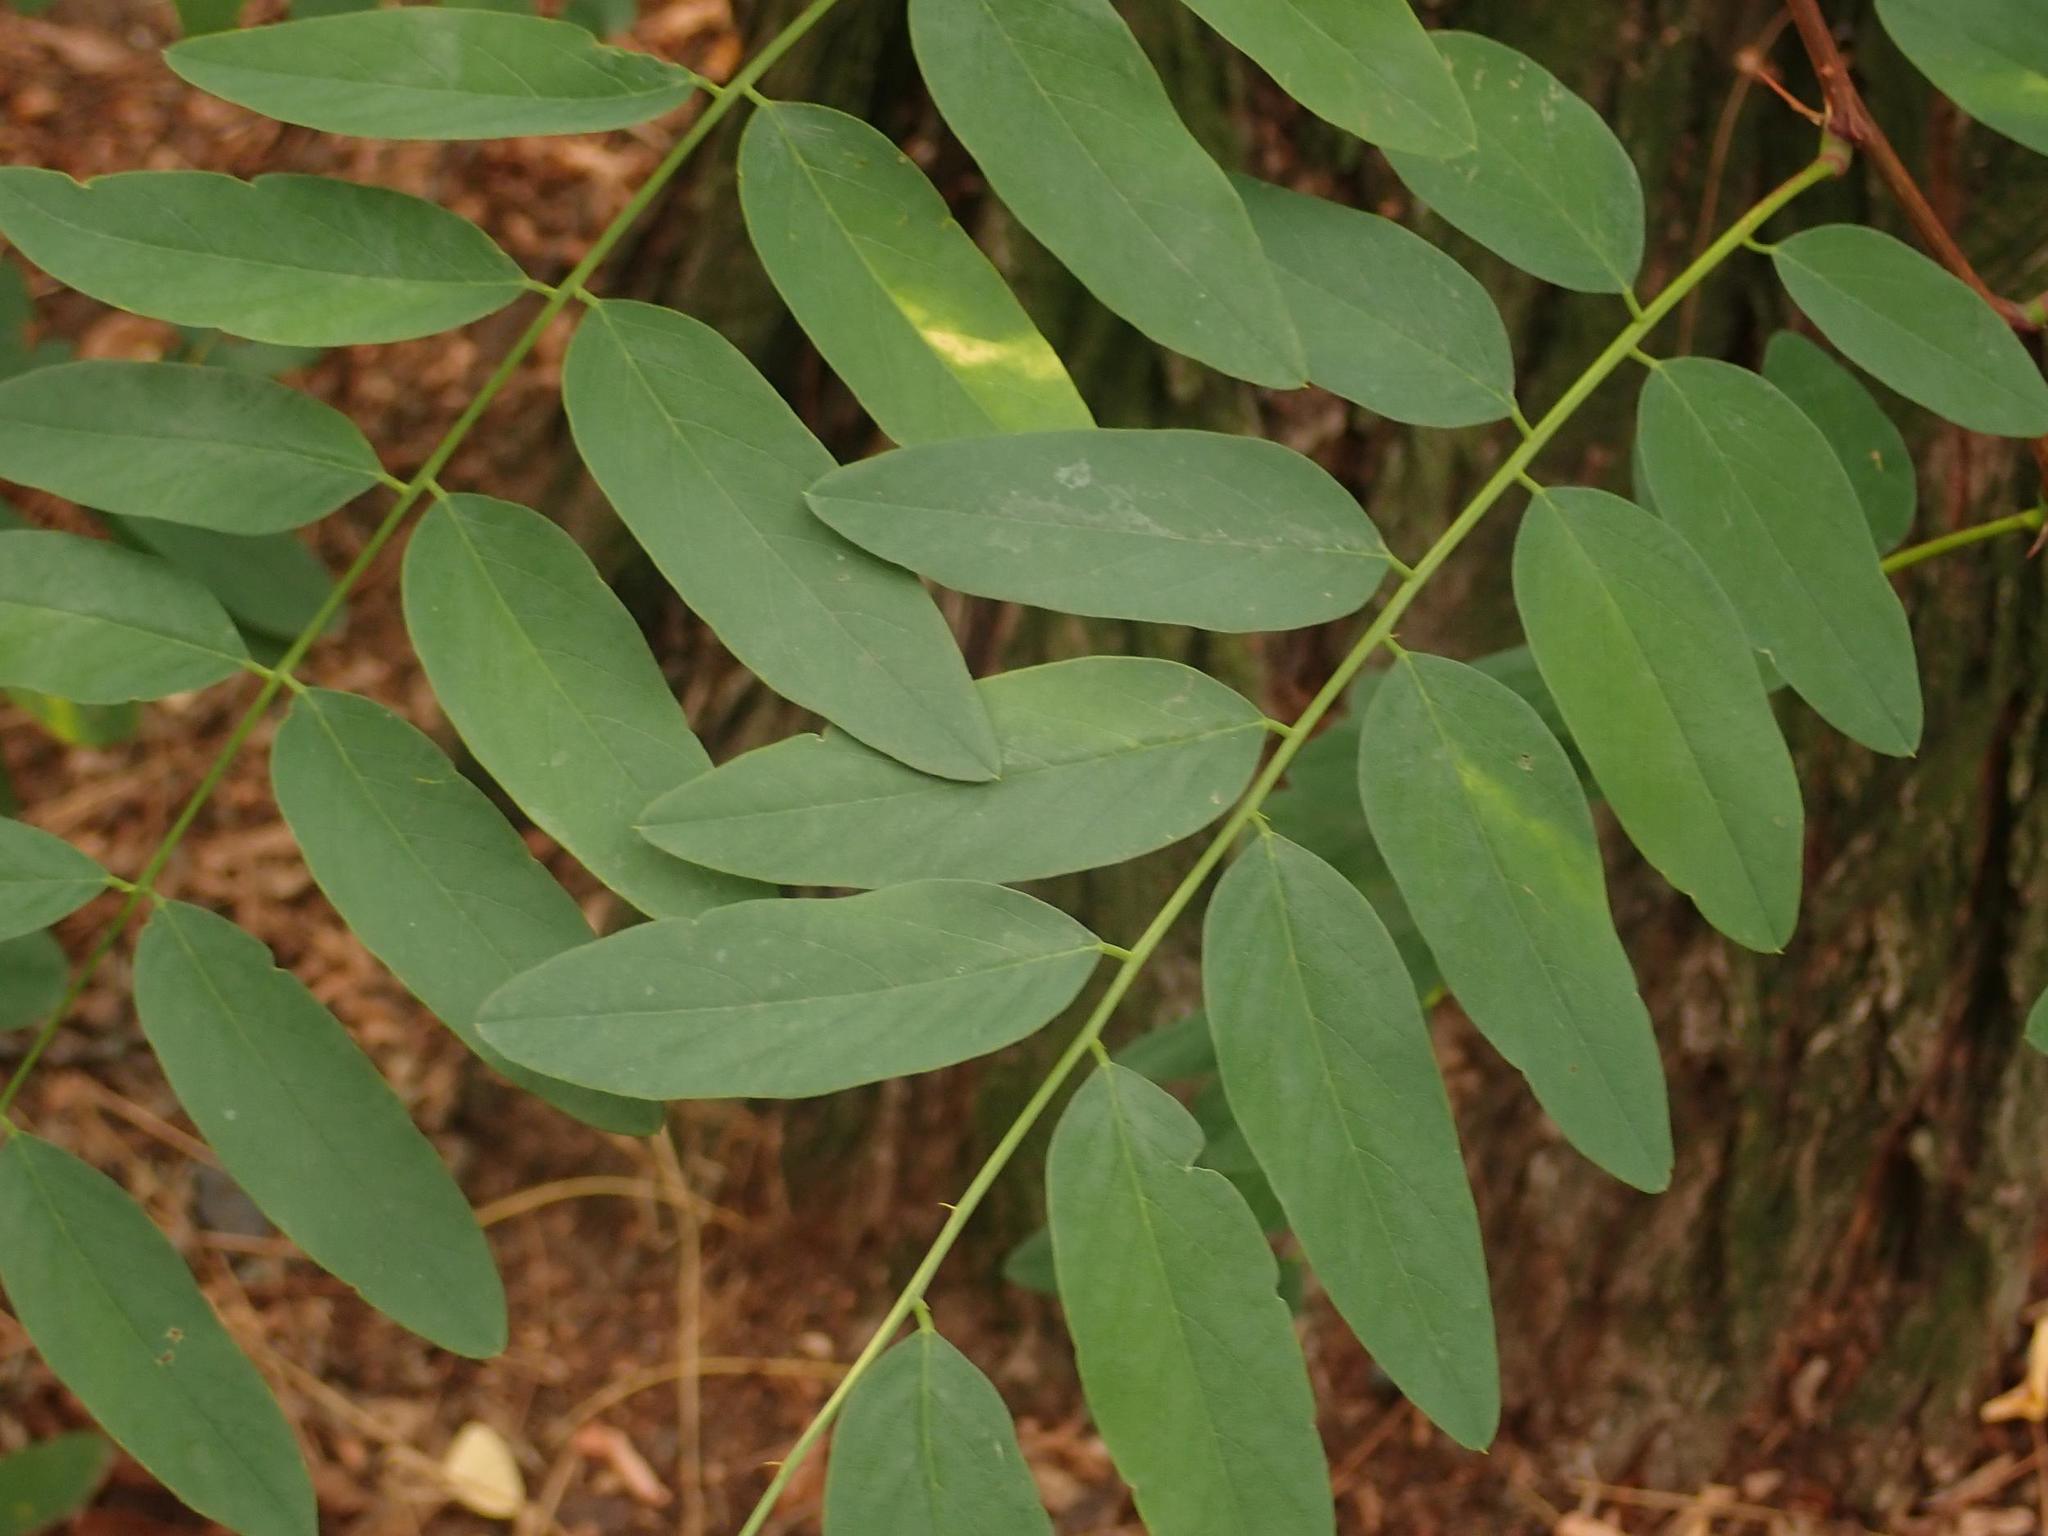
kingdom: Plantae
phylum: Tracheophyta
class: Magnoliopsida
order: Fabales
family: Fabaceae
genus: Robinia
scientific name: Robinia pseudoacacia
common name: Black locust
